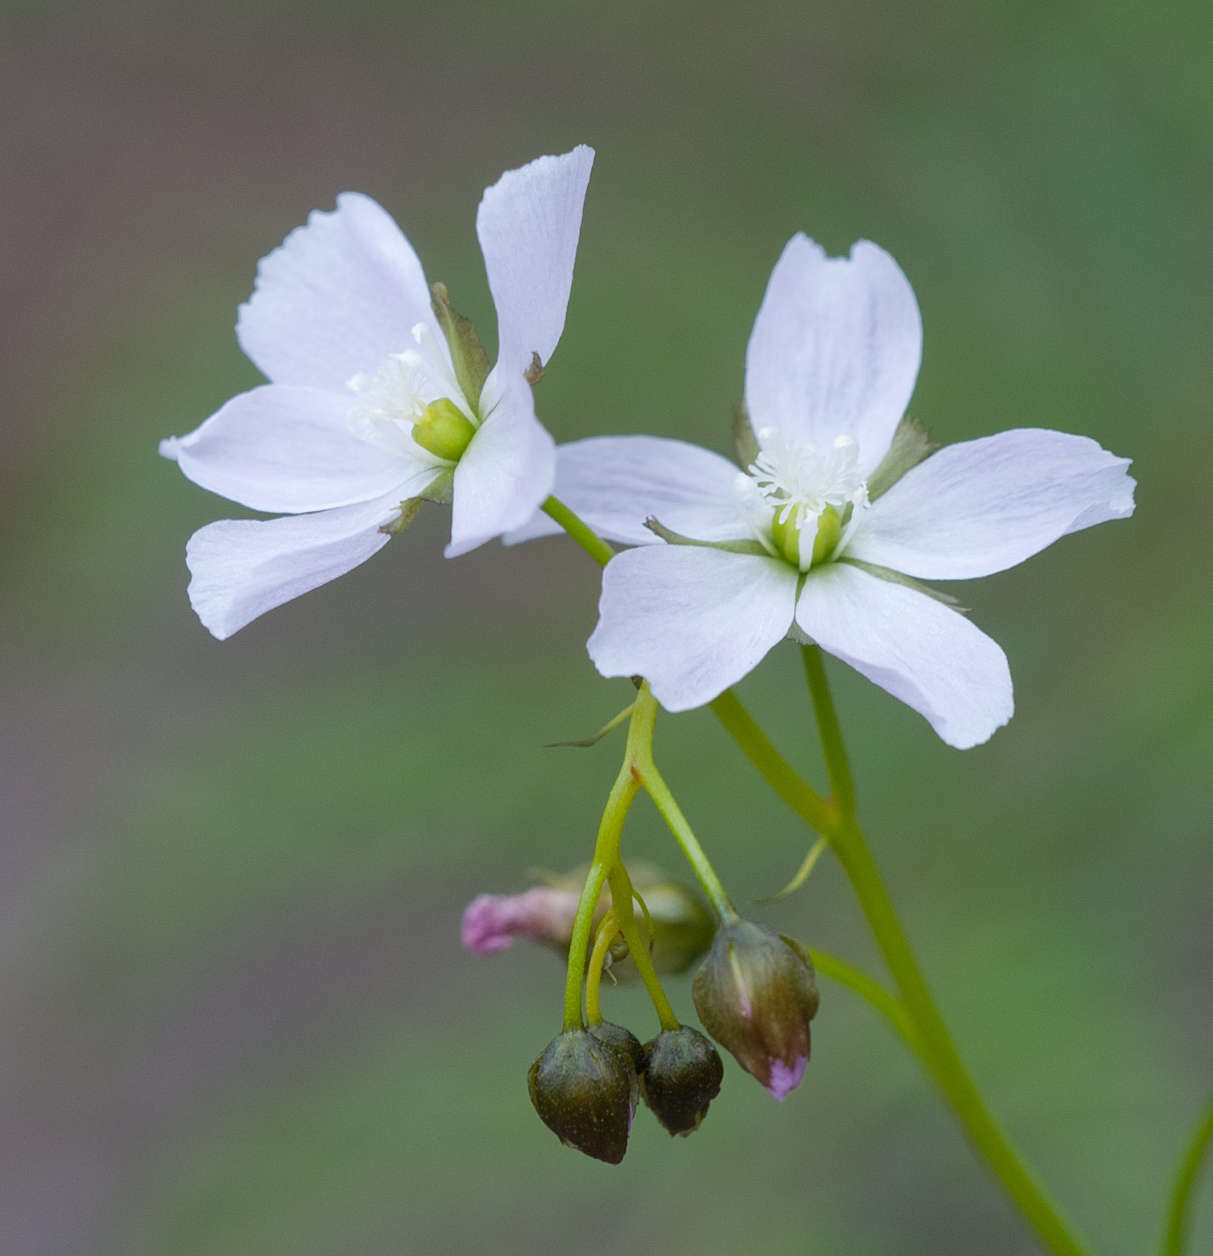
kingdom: Plantae
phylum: Tracheophyta
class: Magnoliopsida
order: Caryophyllales
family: Droseraceae
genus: Drosera
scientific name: Drosera peltata
